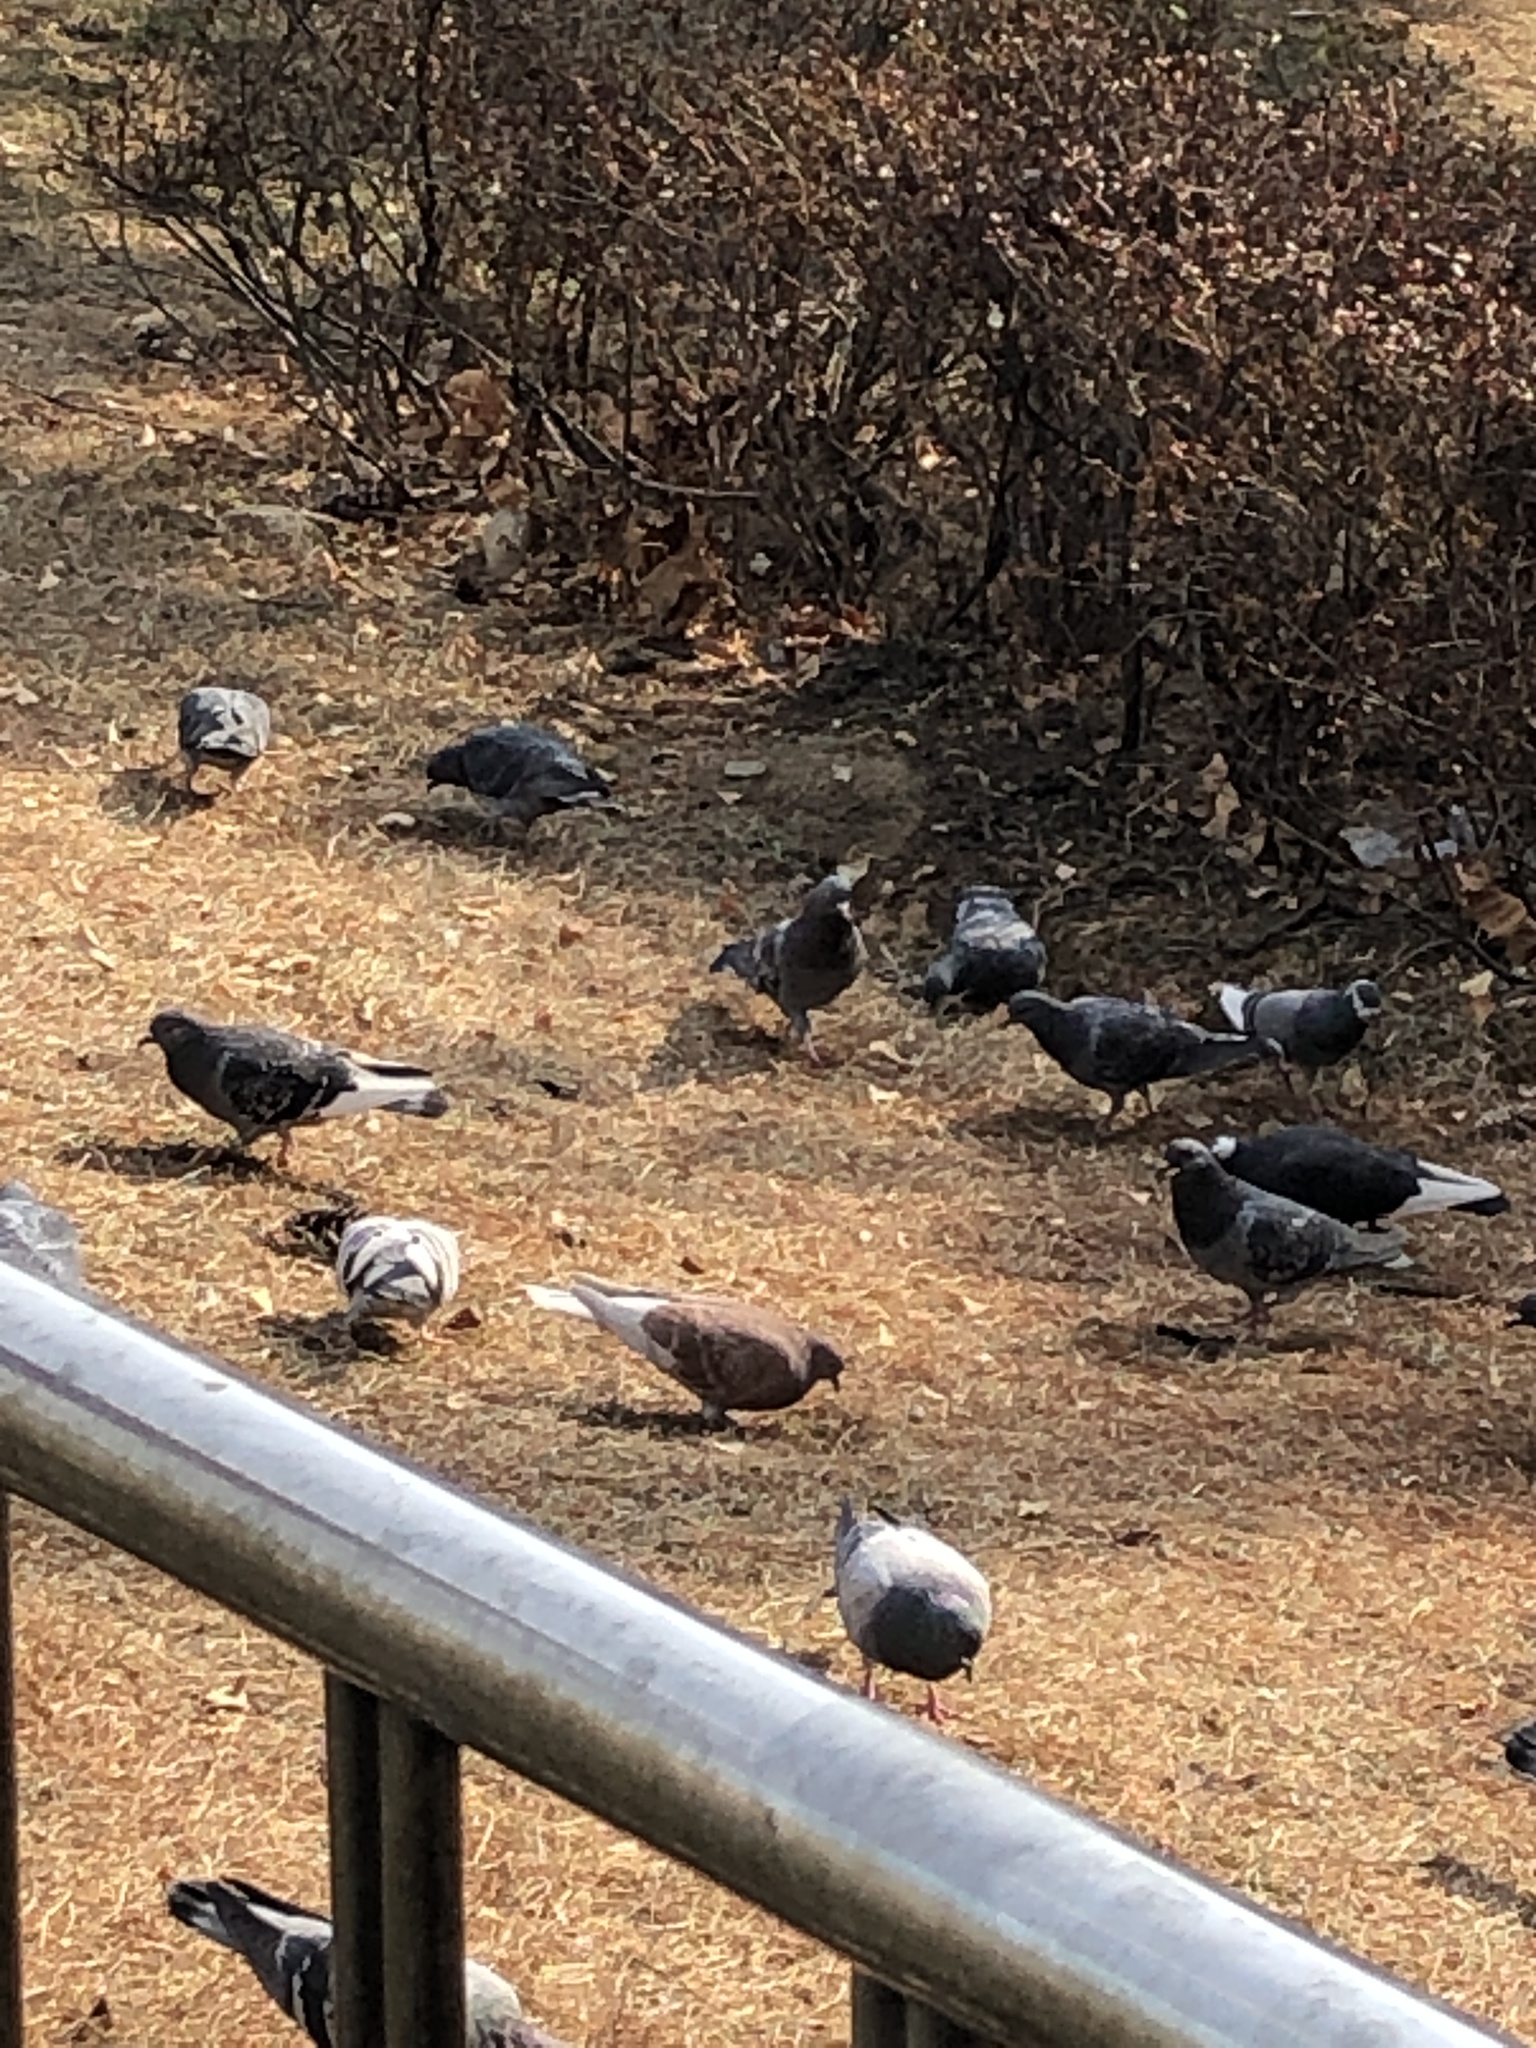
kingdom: Animalia
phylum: Chordata
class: Aves
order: Columbiformes
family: Columbidae
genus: Columba
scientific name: Columba livia
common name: Rock pigeon
